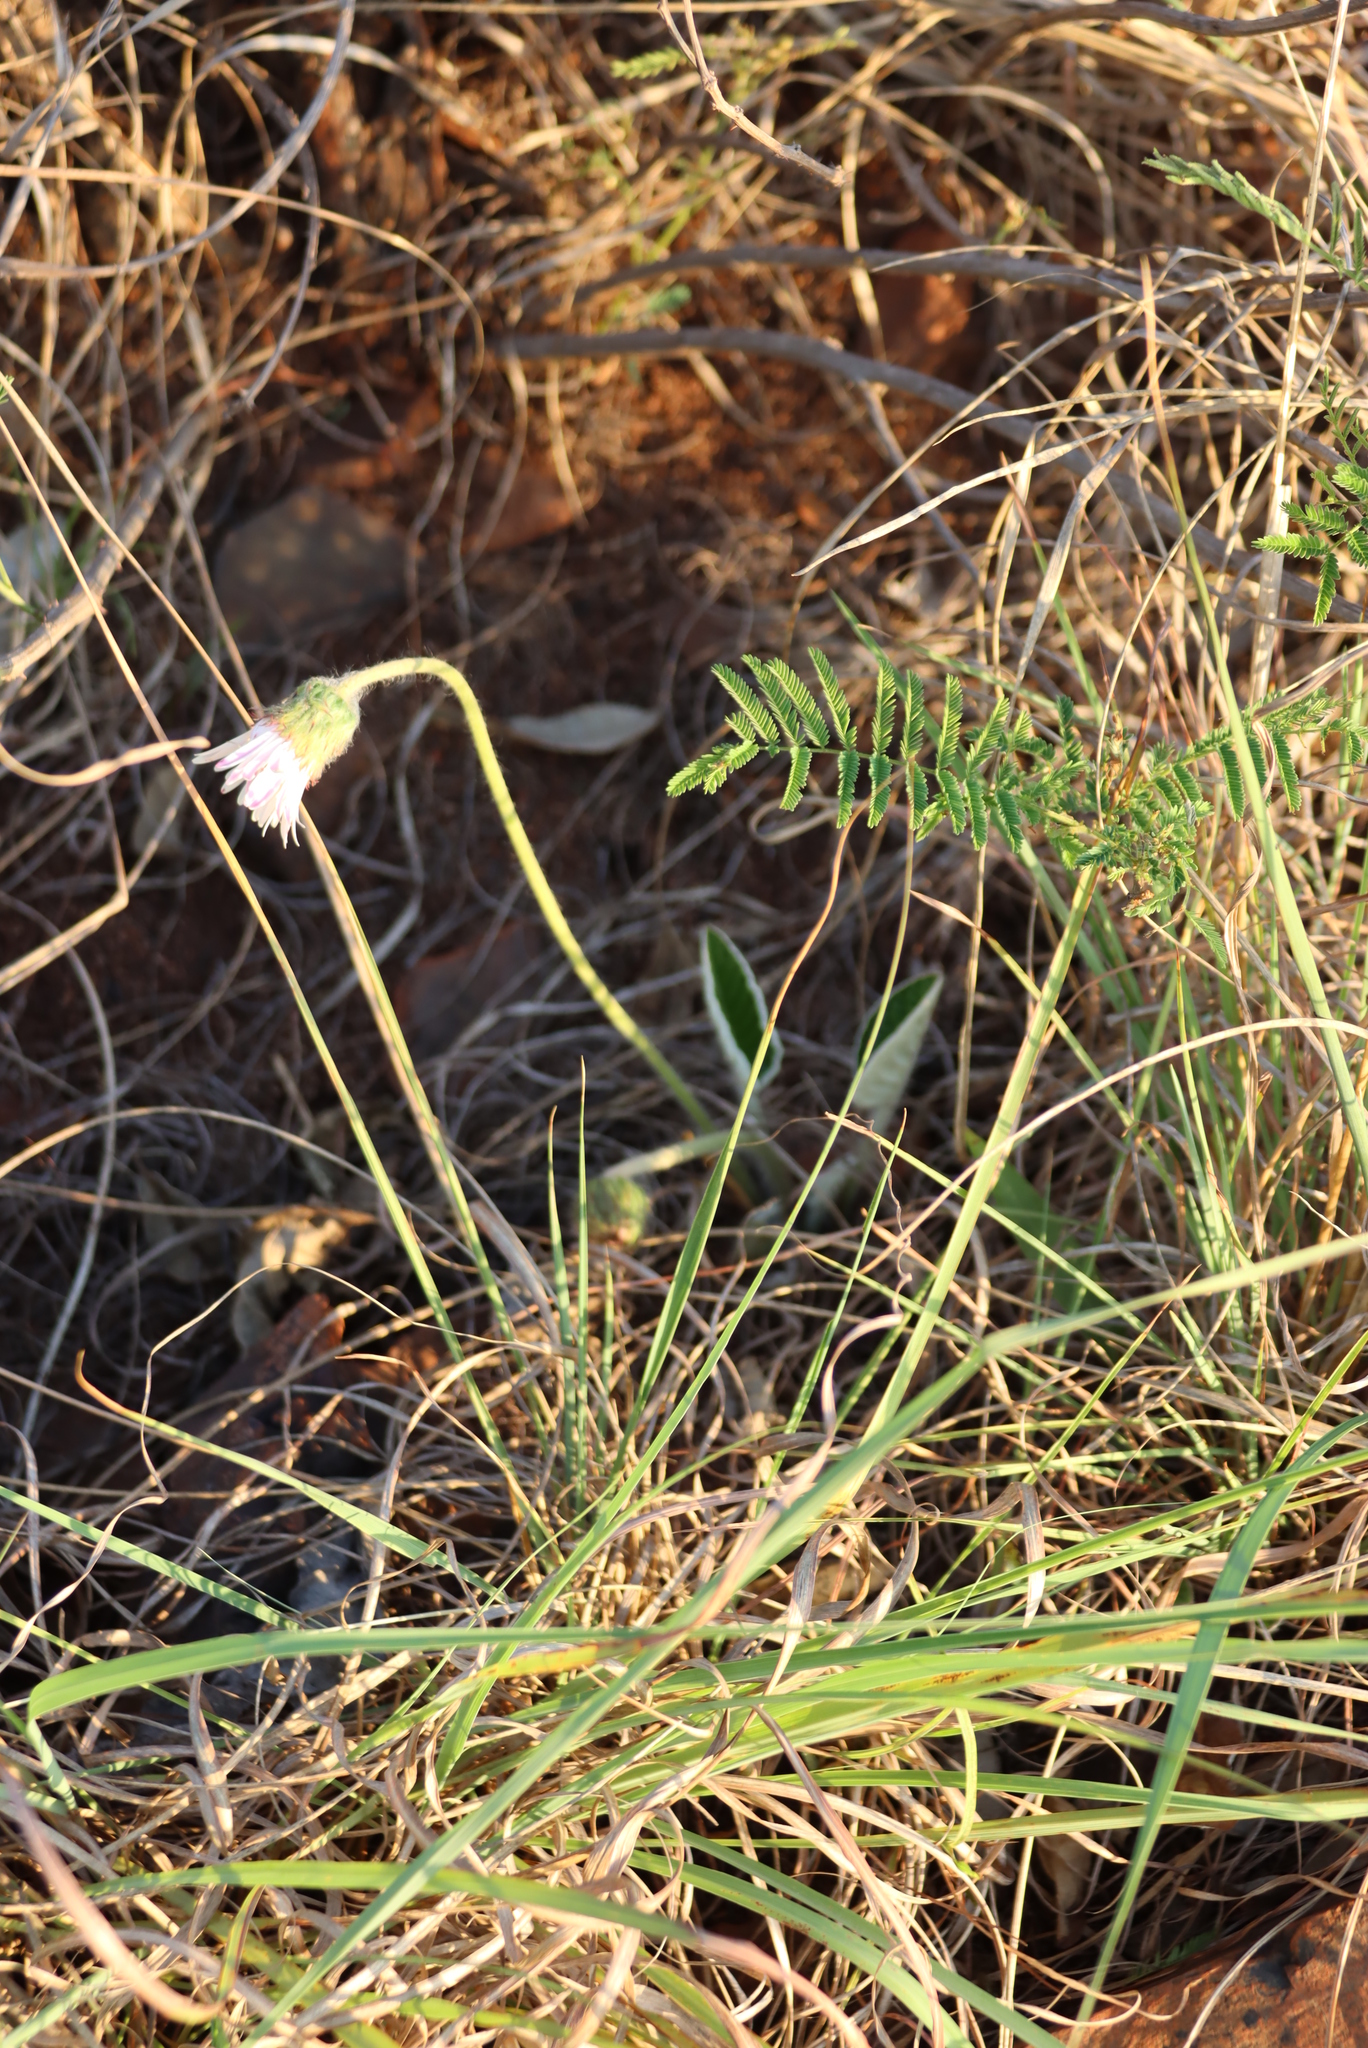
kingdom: Plantae
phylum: Tracheophyta
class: Magnoliopsida
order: Asterales
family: Asteraceae
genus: Gerbera
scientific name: Gerbera ambigua
